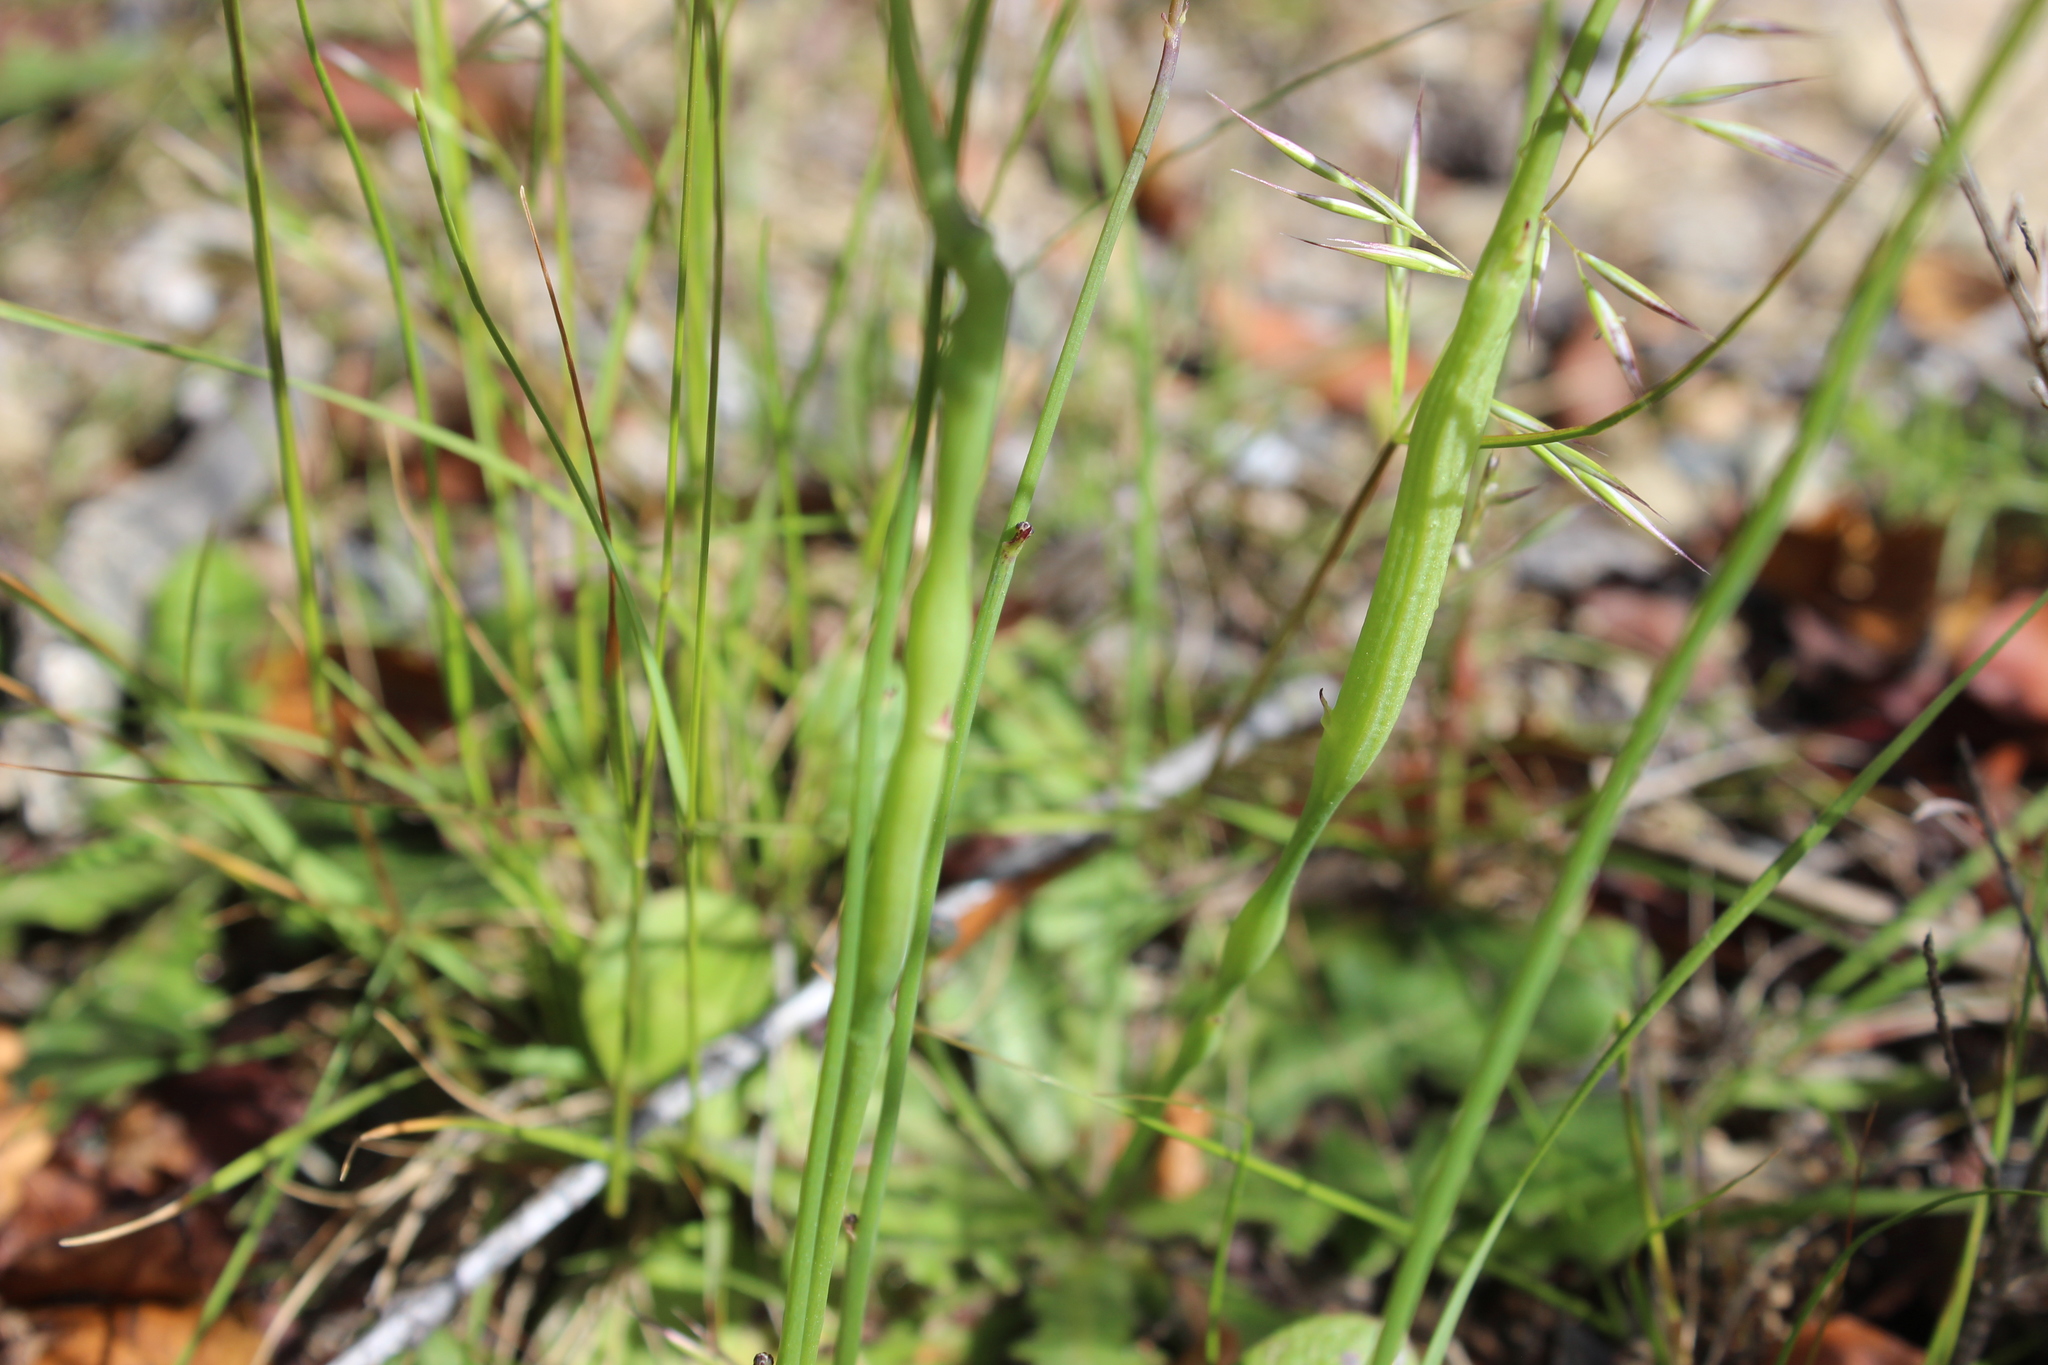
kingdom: Animalia
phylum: Arthropoda
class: Insecta
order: Hymenoptera
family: Cynipidae
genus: Phanacis
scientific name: Phanacis hypochoeridis
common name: Gall wasp
